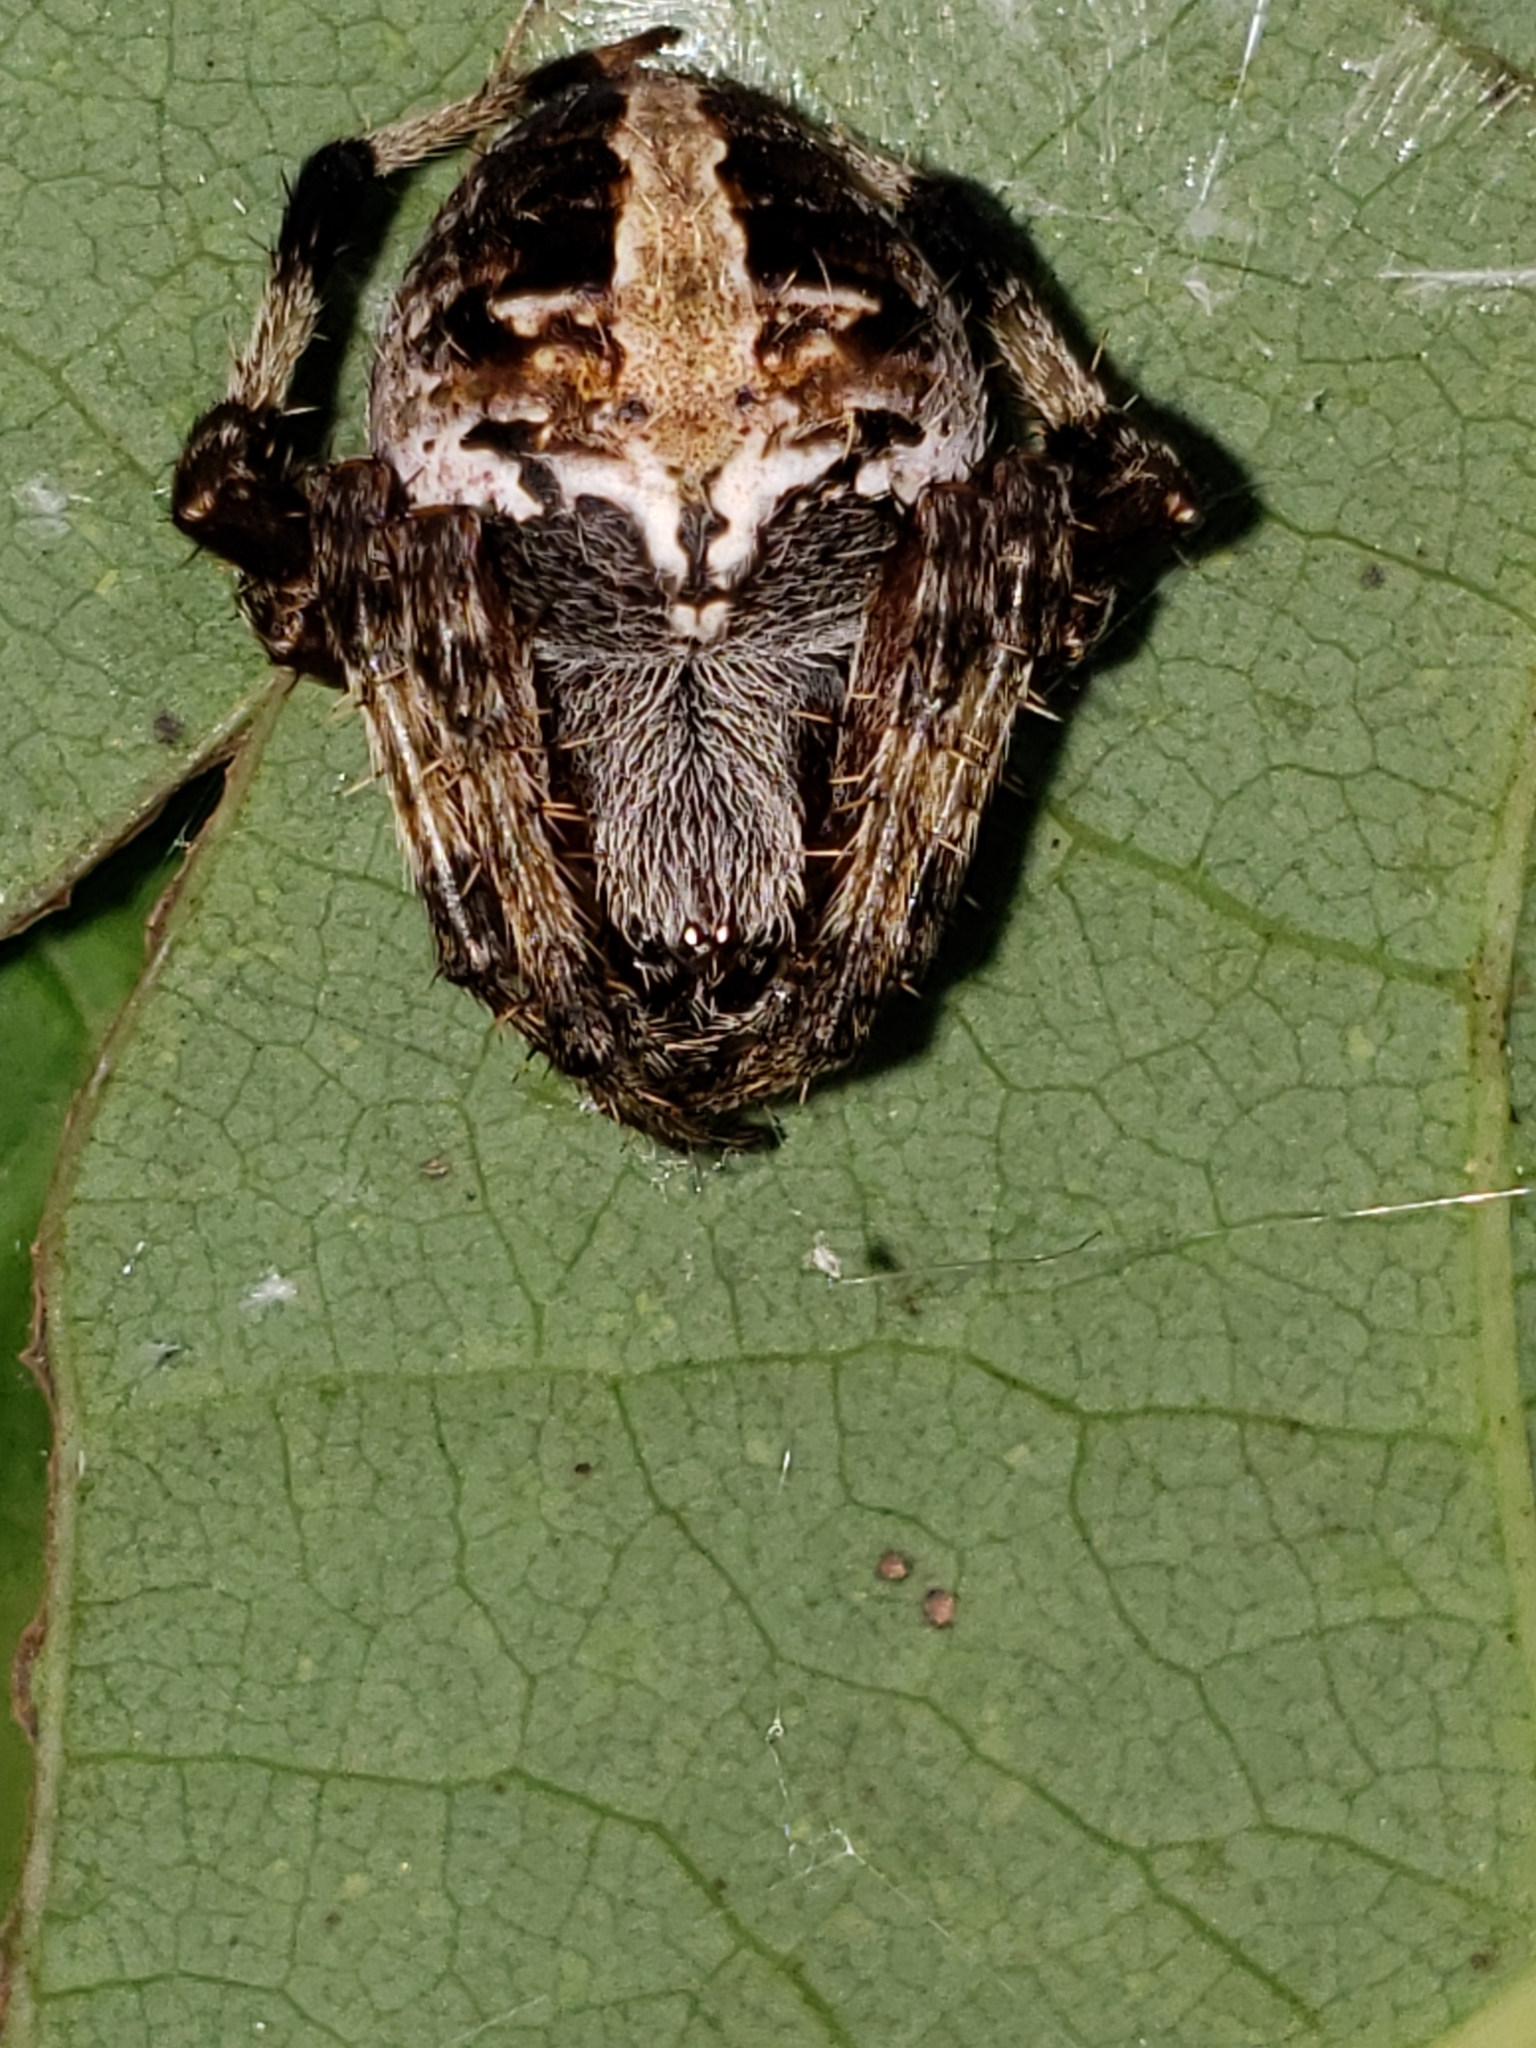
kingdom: Animalia
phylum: Arthropoda
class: Arachnida
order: Araneae
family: Araneidae
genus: Neoscona
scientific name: Neoscona domiciliorum
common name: Red-femured spotted orbweaver
